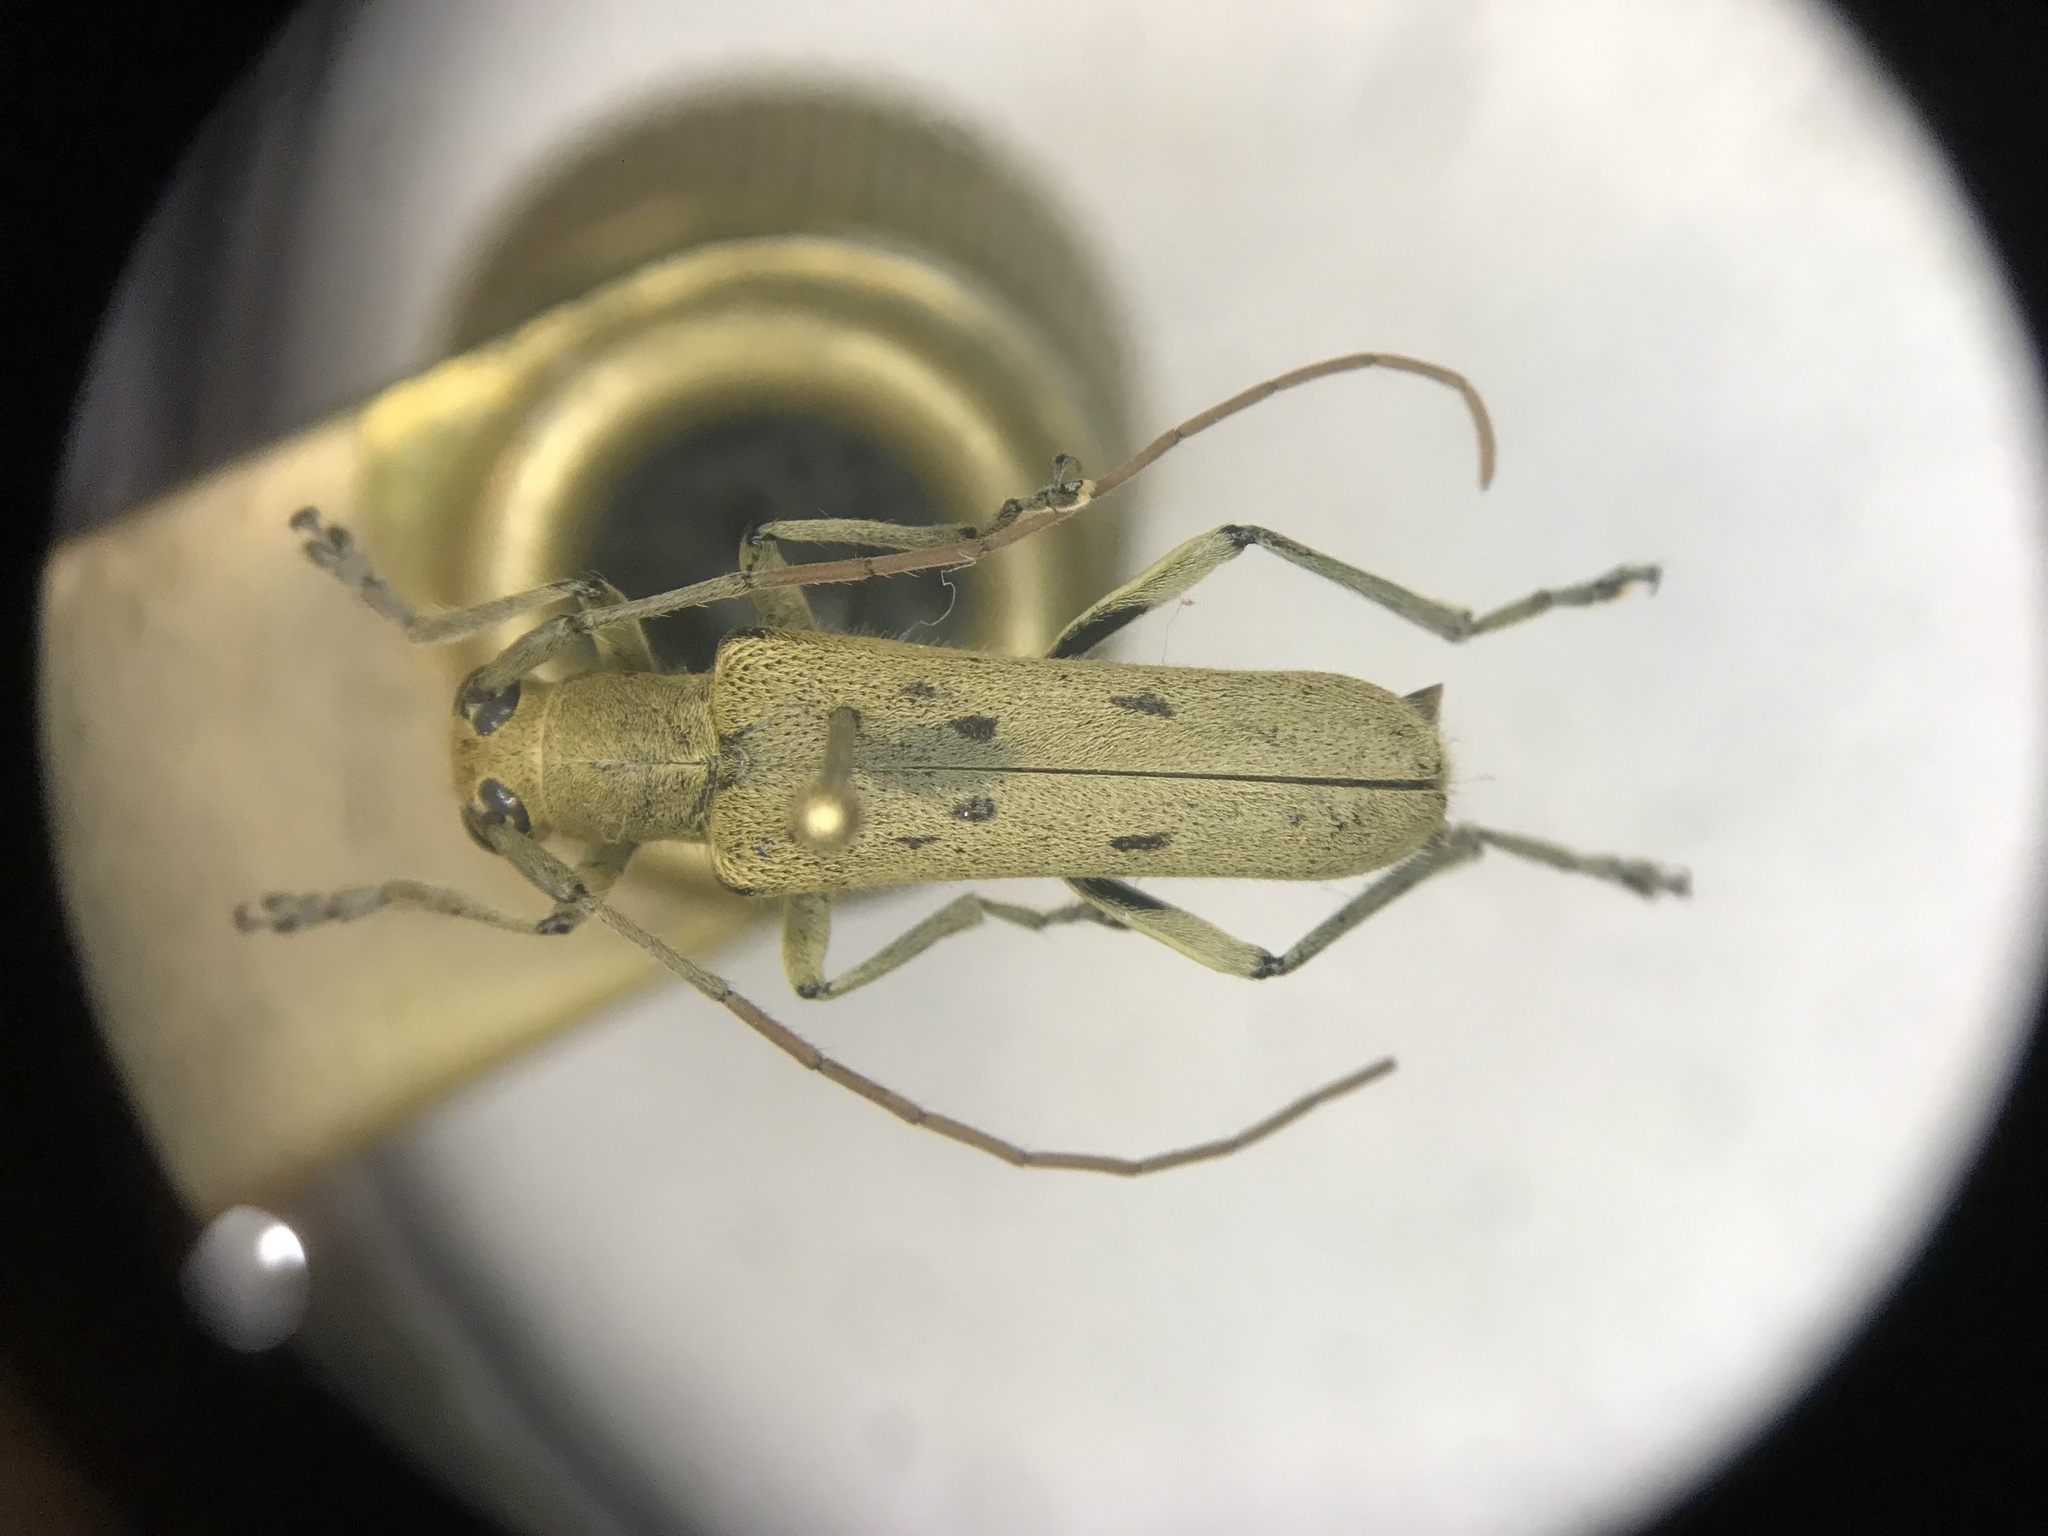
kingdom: Animalia
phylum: Arthropoda
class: Insecta
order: Coleoptera
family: Cerambycidae
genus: Saperda
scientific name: Saperda vestita
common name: Linden borer
